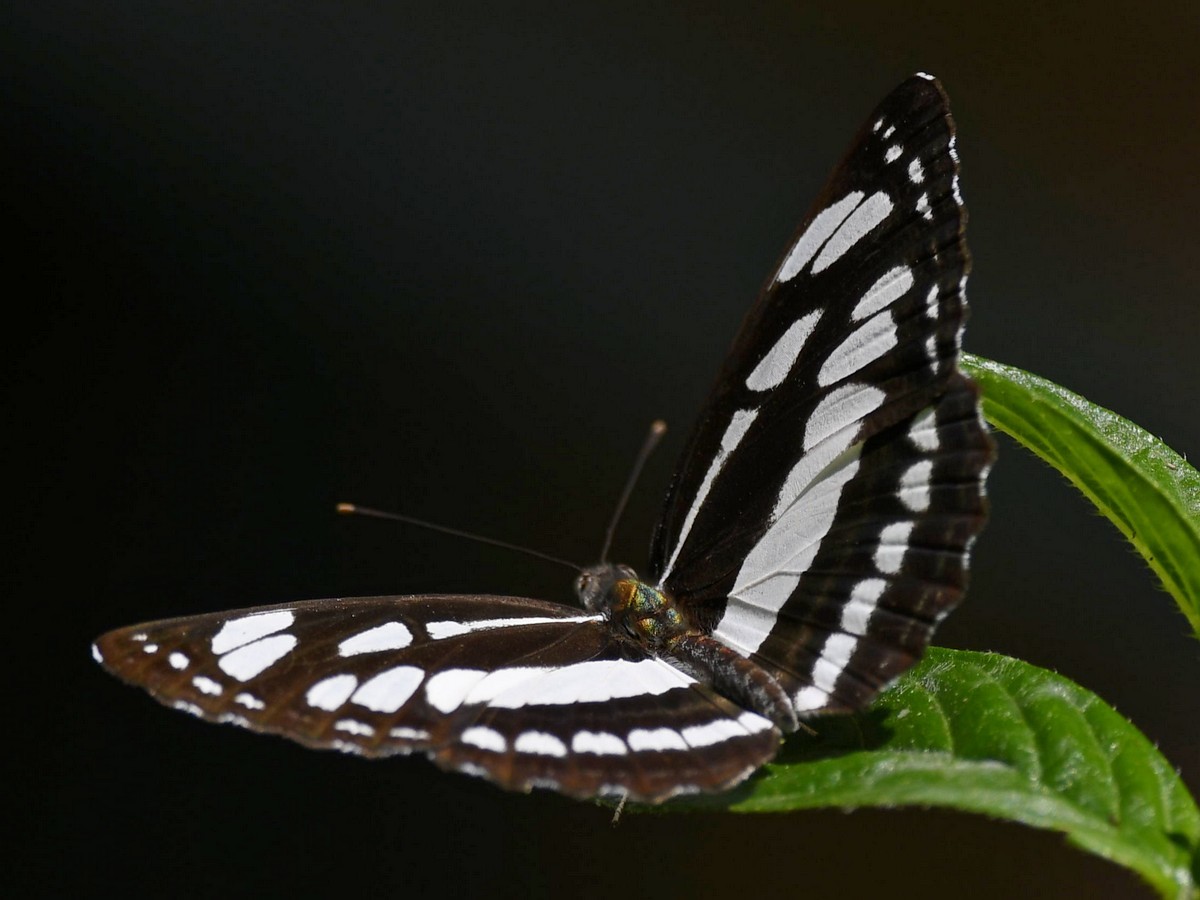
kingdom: Animalia
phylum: Arthropoda
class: Insecta
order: Lepidoptera
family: Nymphalidae
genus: Neptis
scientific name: Neptis hylas
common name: Common sailer
